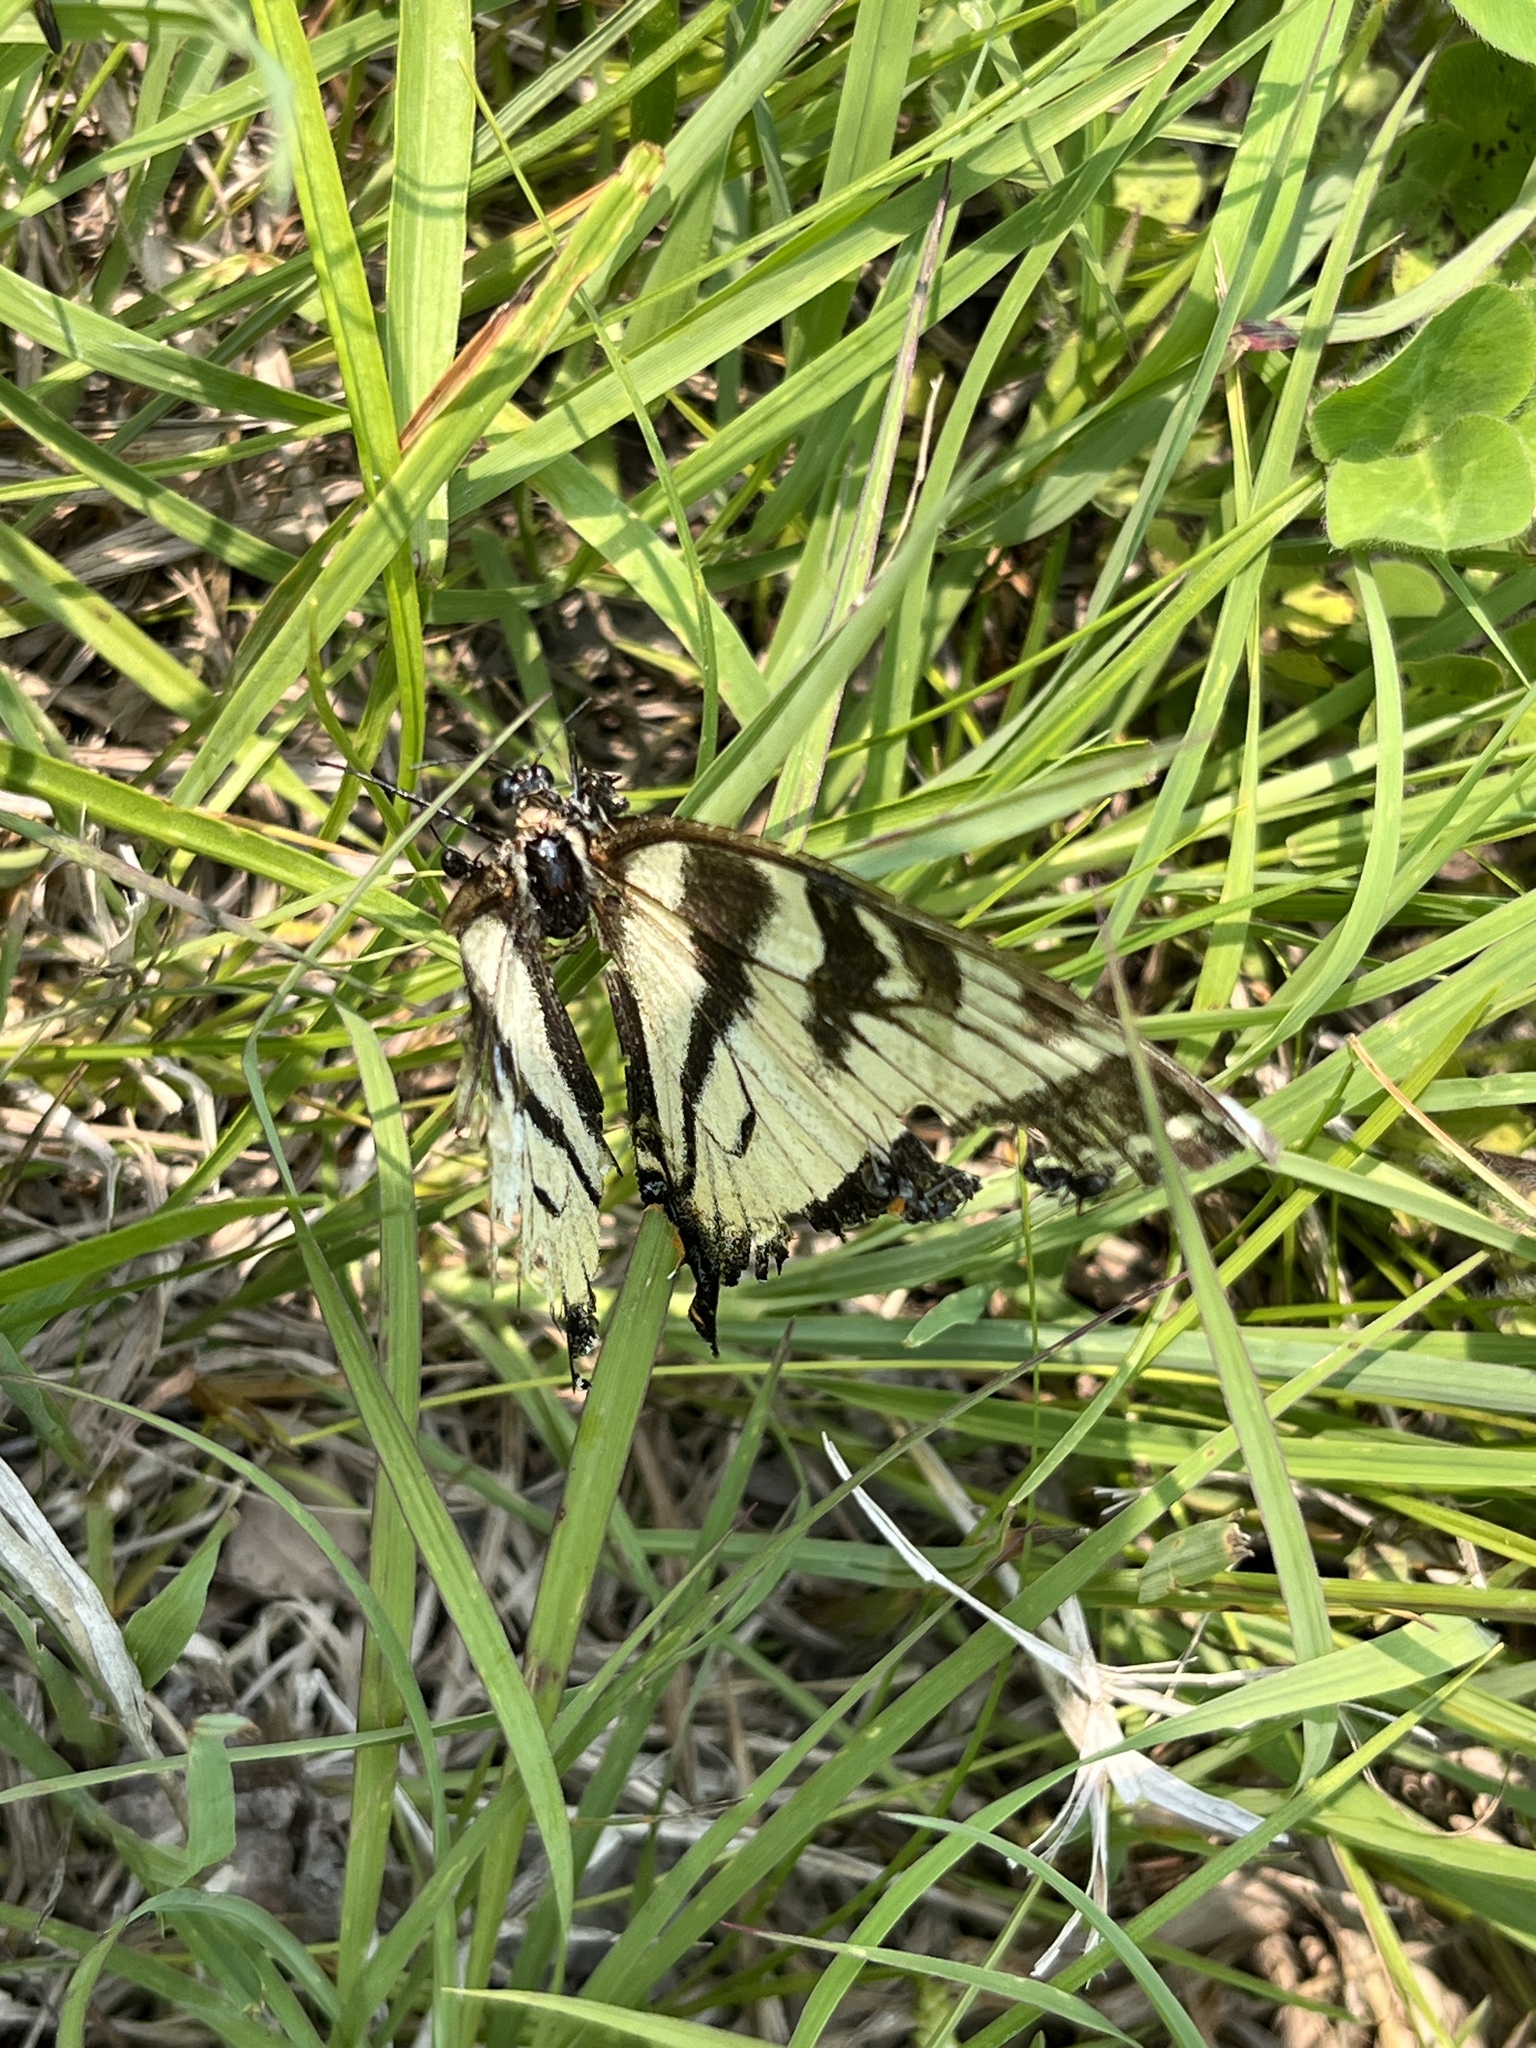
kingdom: Animalia
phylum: Arthropoda
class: Insecta
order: Lepidoptera
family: Papilionidae
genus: Papilio
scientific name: Papilio canadensis
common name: Canadian tiger swallowtail
